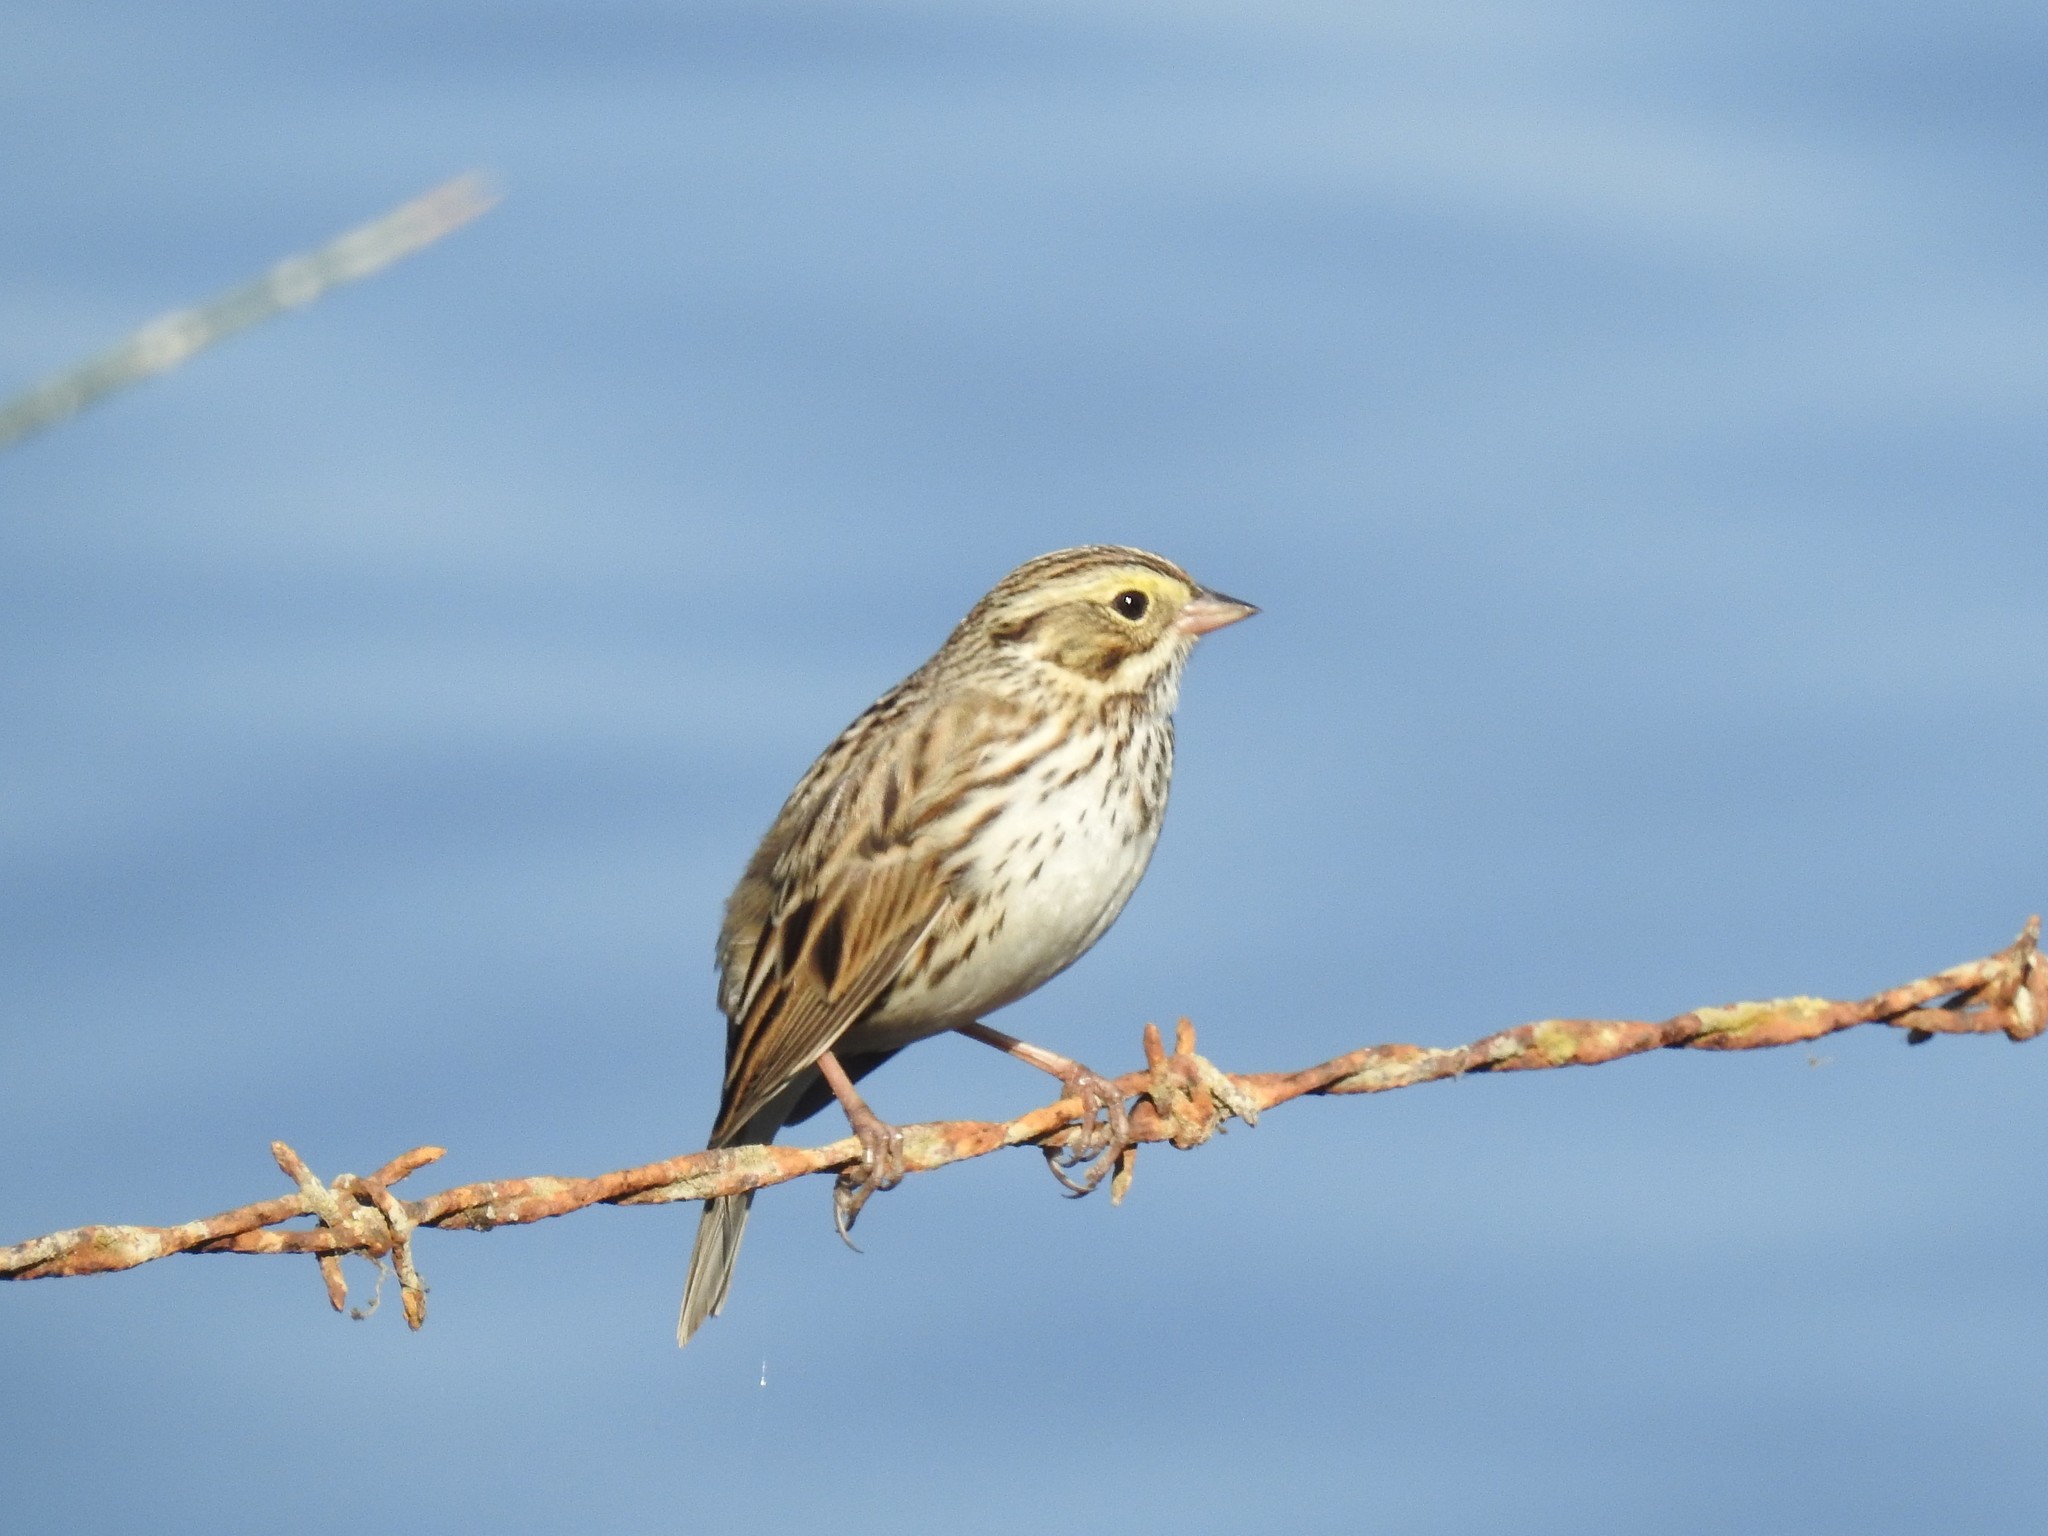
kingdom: Animalia
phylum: Chordata
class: Aves
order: Passeriformes
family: Passerellidae
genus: Passerculus
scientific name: Passerculus sandwichensis
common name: Savannah sparrow
